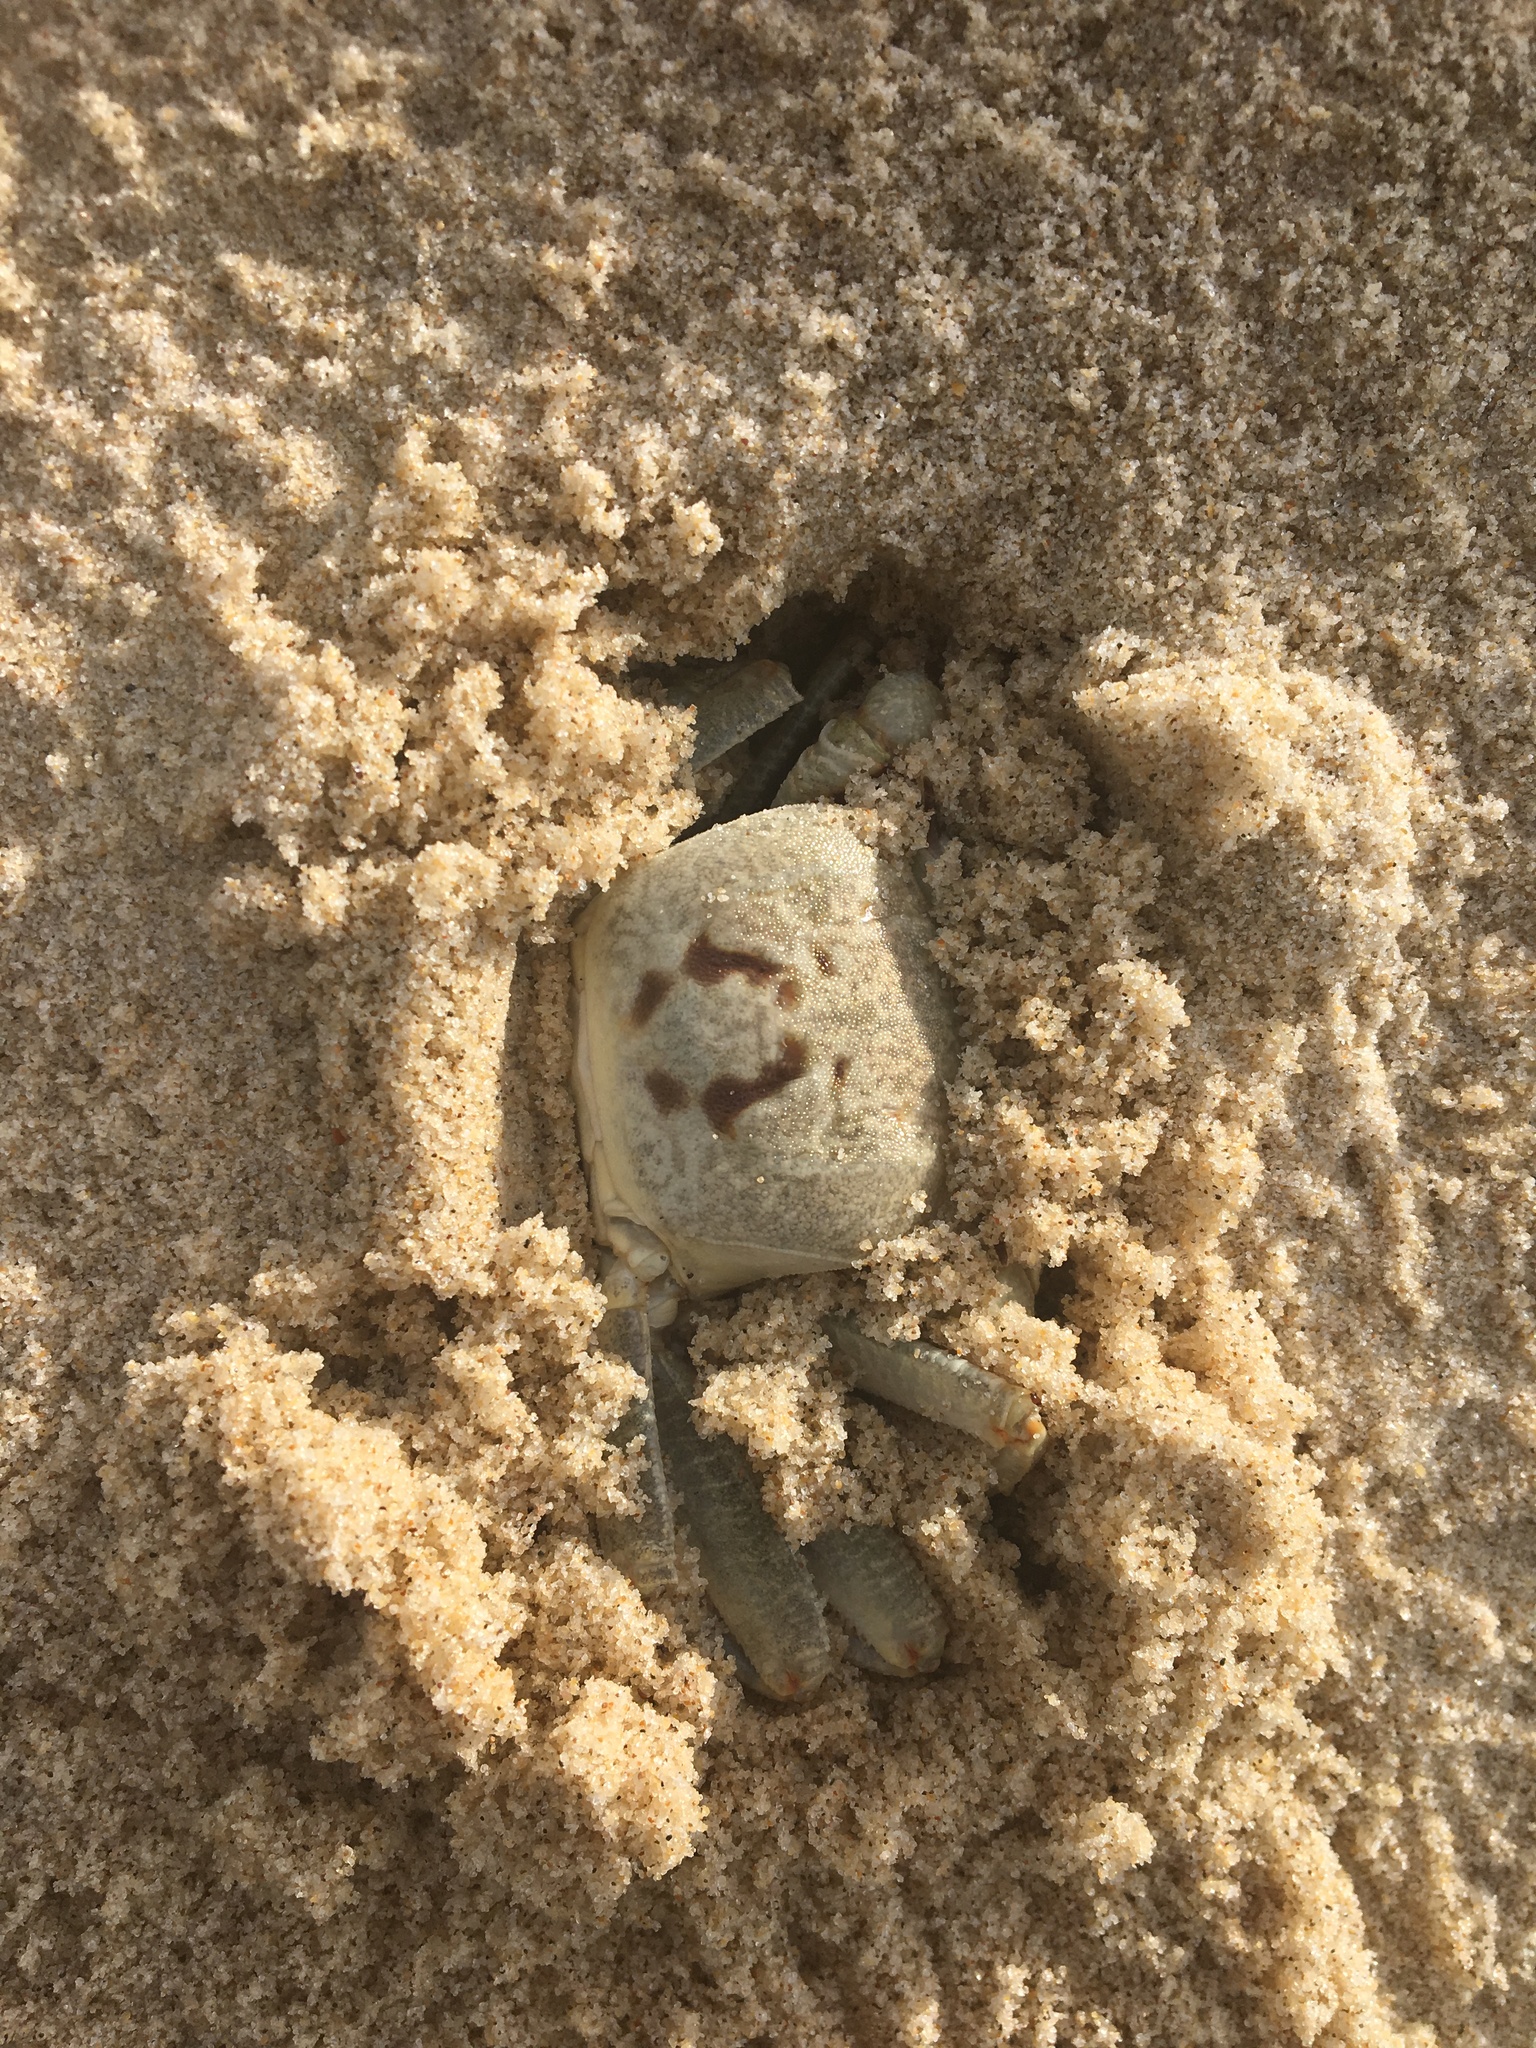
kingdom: Animalia
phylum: Arthropoda
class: Malacostraca
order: Decapoda
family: Ocypodidae
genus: Ocypode
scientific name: Ocypode ceratophthalmus
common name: Indo-pacific ghost crab
